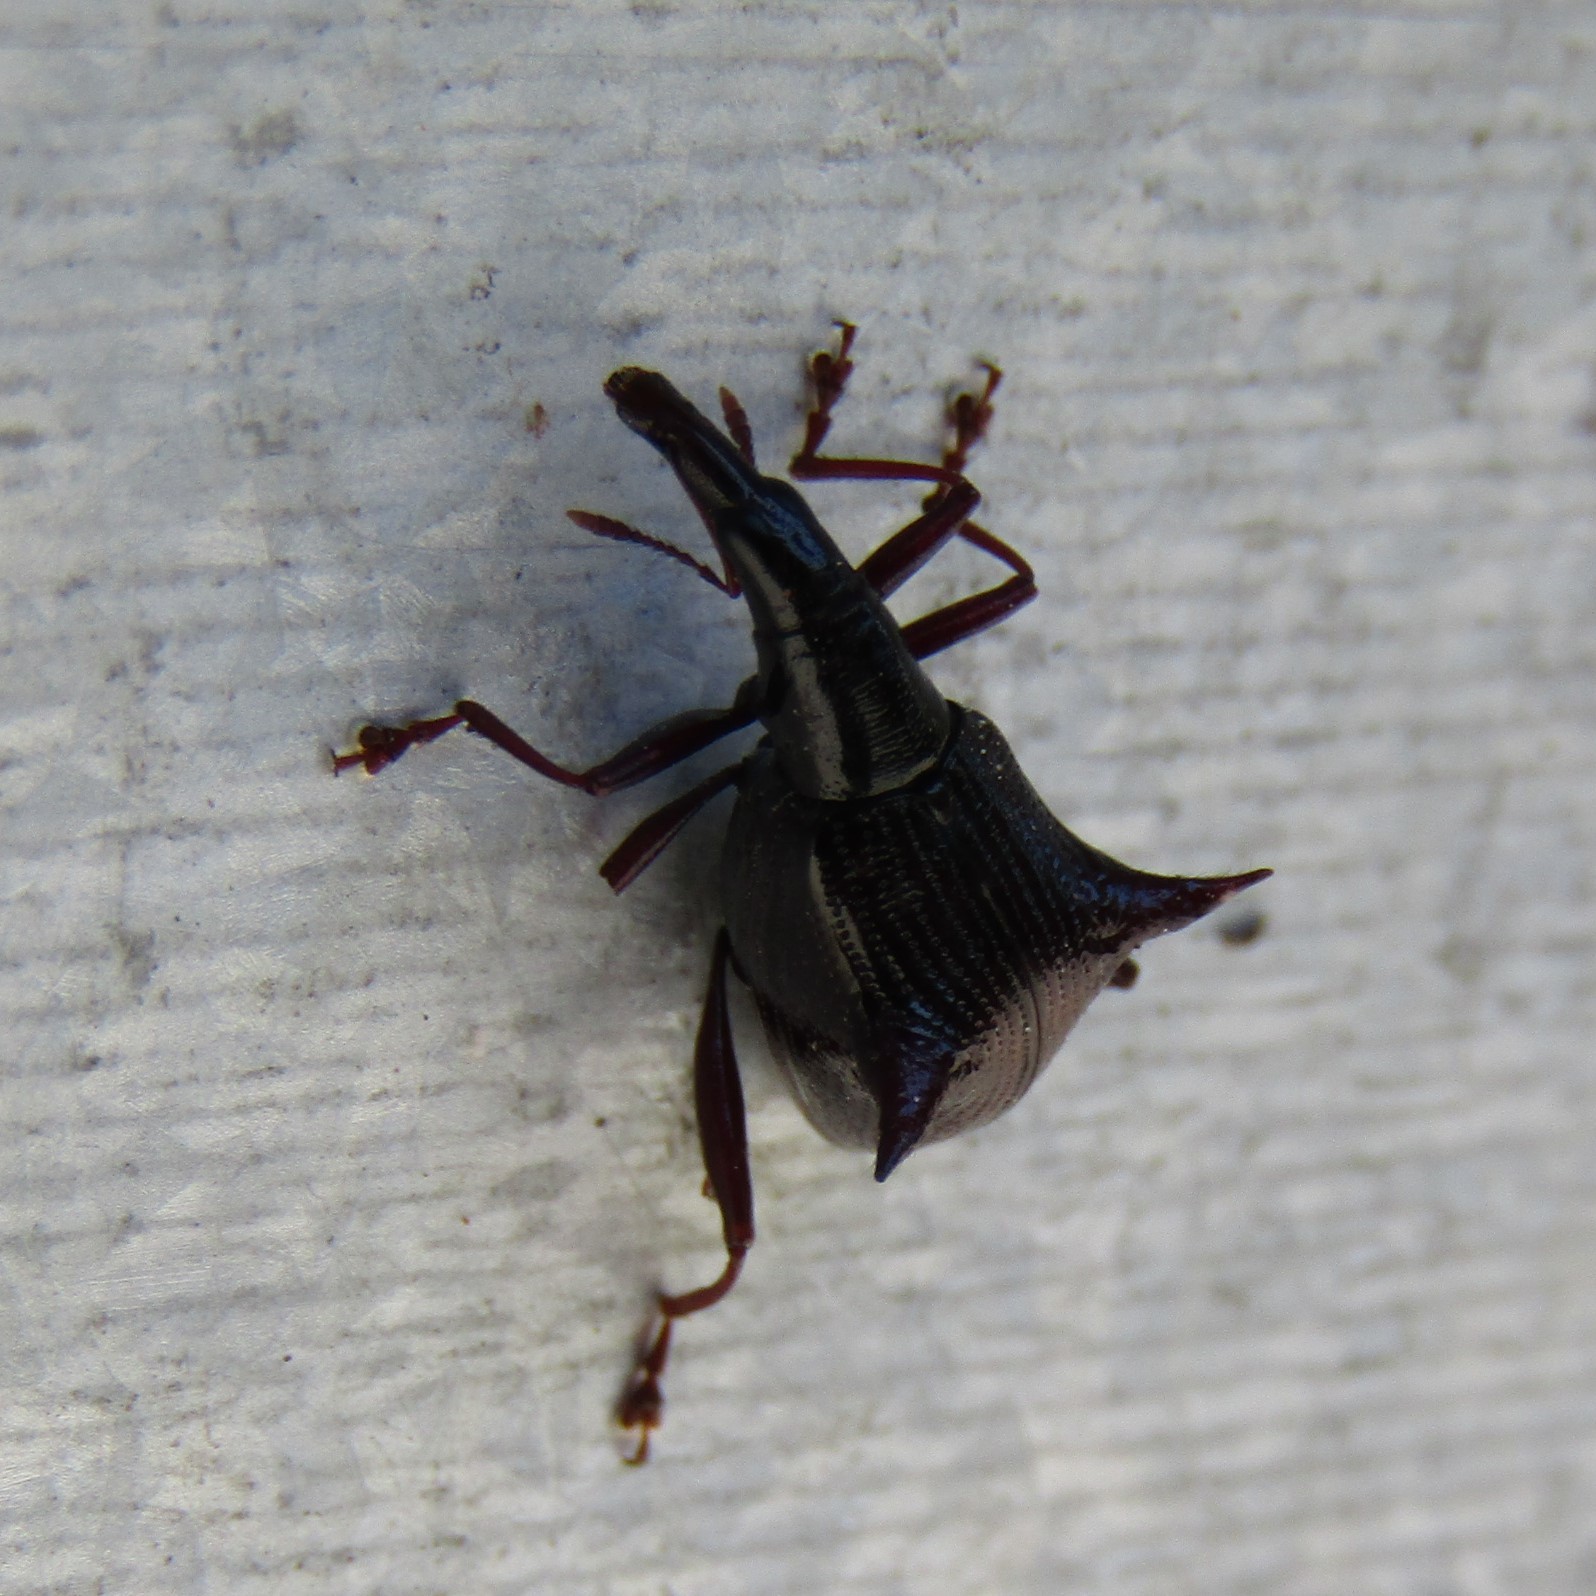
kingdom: Animalia
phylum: Arthropoda
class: Insecta
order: Coleoptera
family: Curculionidae
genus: Nyxetes
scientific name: Nyxetes bidens
